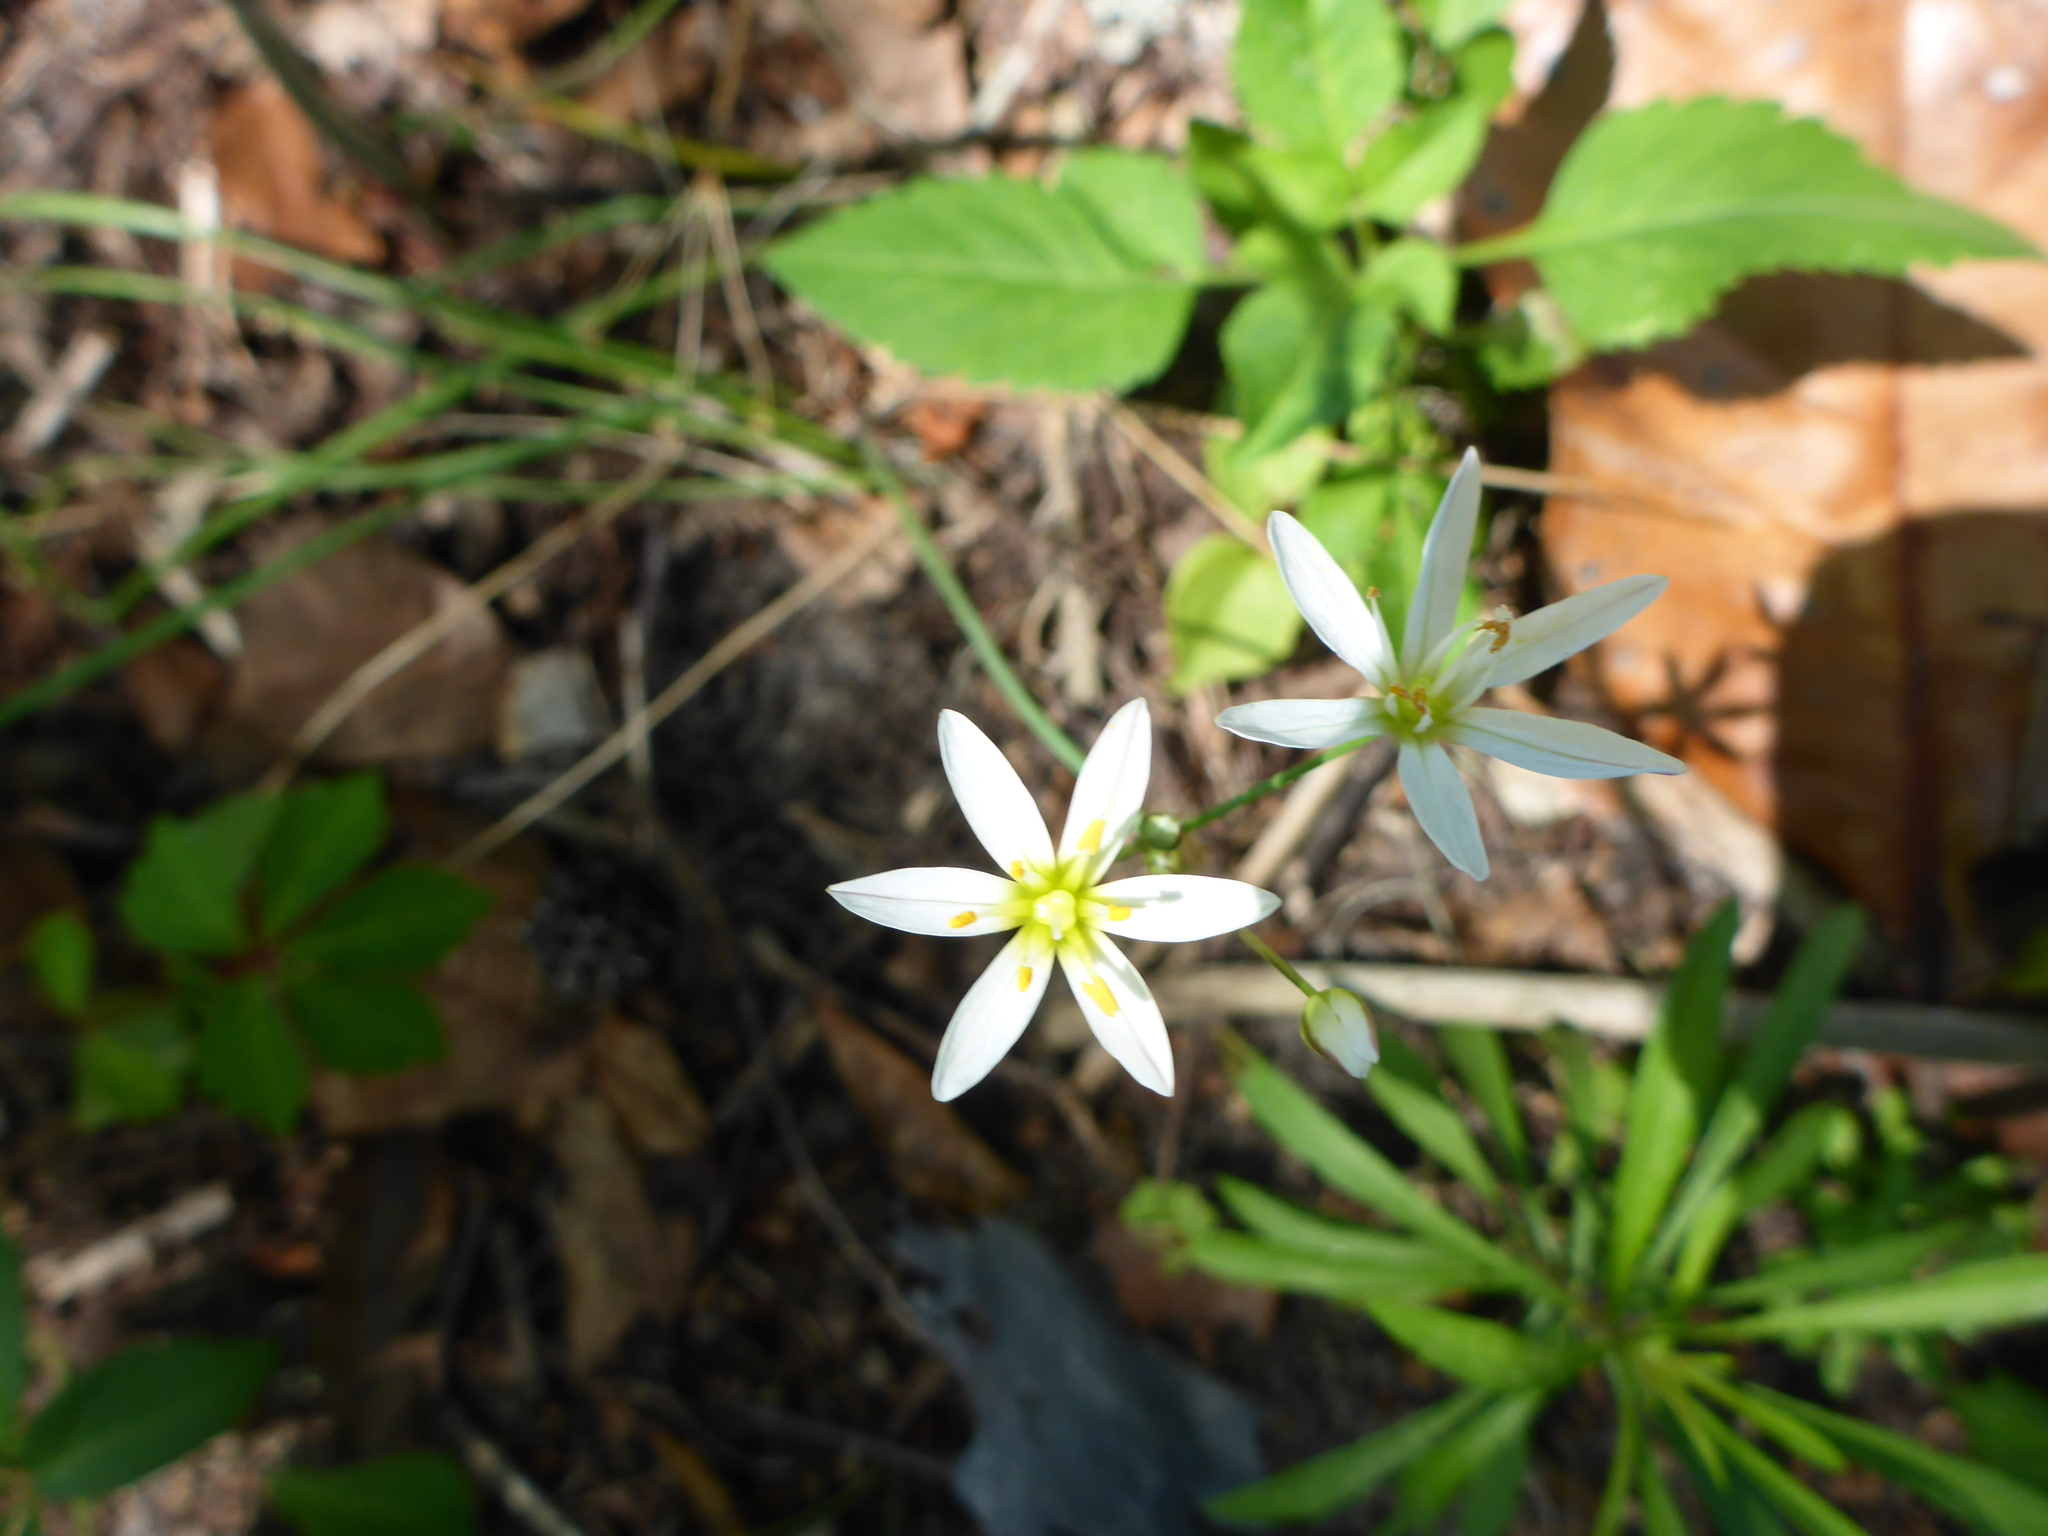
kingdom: Plantae
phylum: Tracheophyta
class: Liliopsida
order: Asparagales
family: Amaryllidaceae
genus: Nothoscordum
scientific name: Nothoscordum bivalve
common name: Crow-poison
